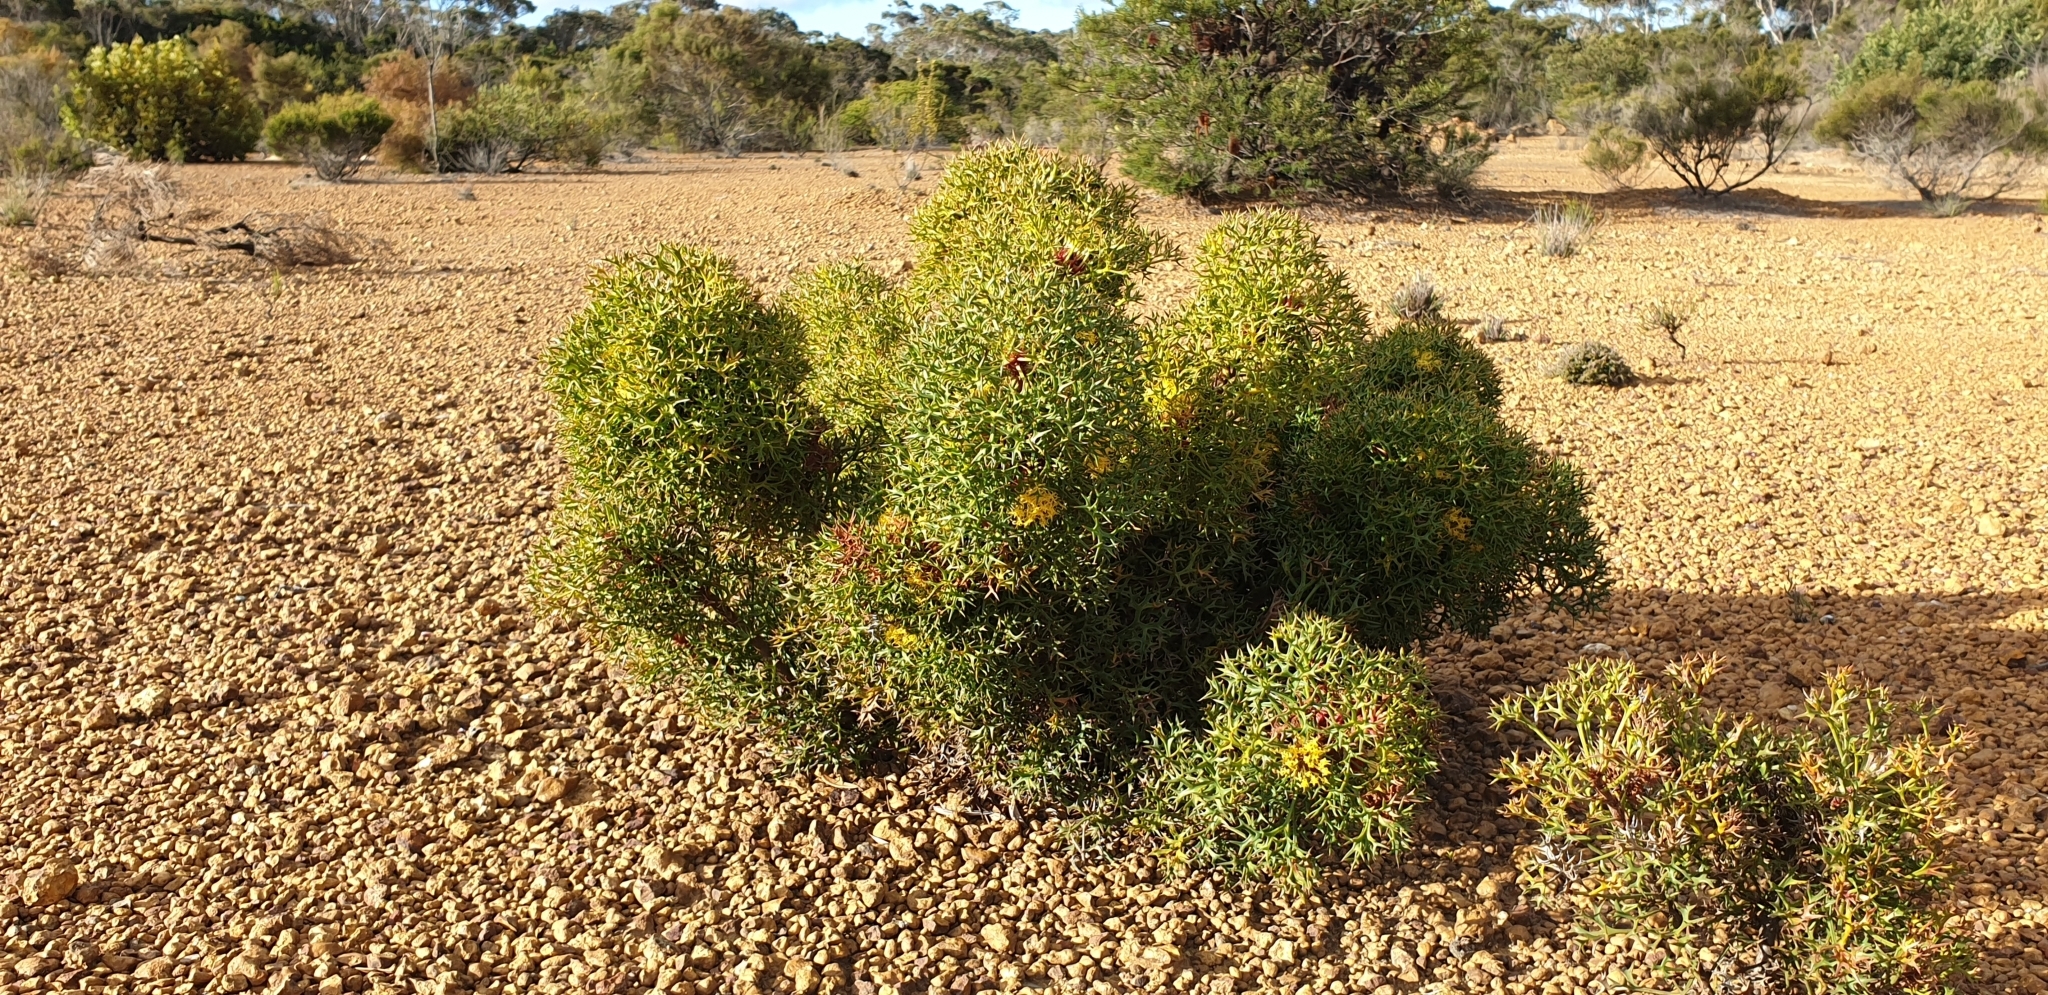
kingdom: Plantae
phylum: Tracheophyta
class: Magnoliopsida
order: Proteales
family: Proteaceae
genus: Isopogon
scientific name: Isopogon ceratophyllus
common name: Horny cone-bush
